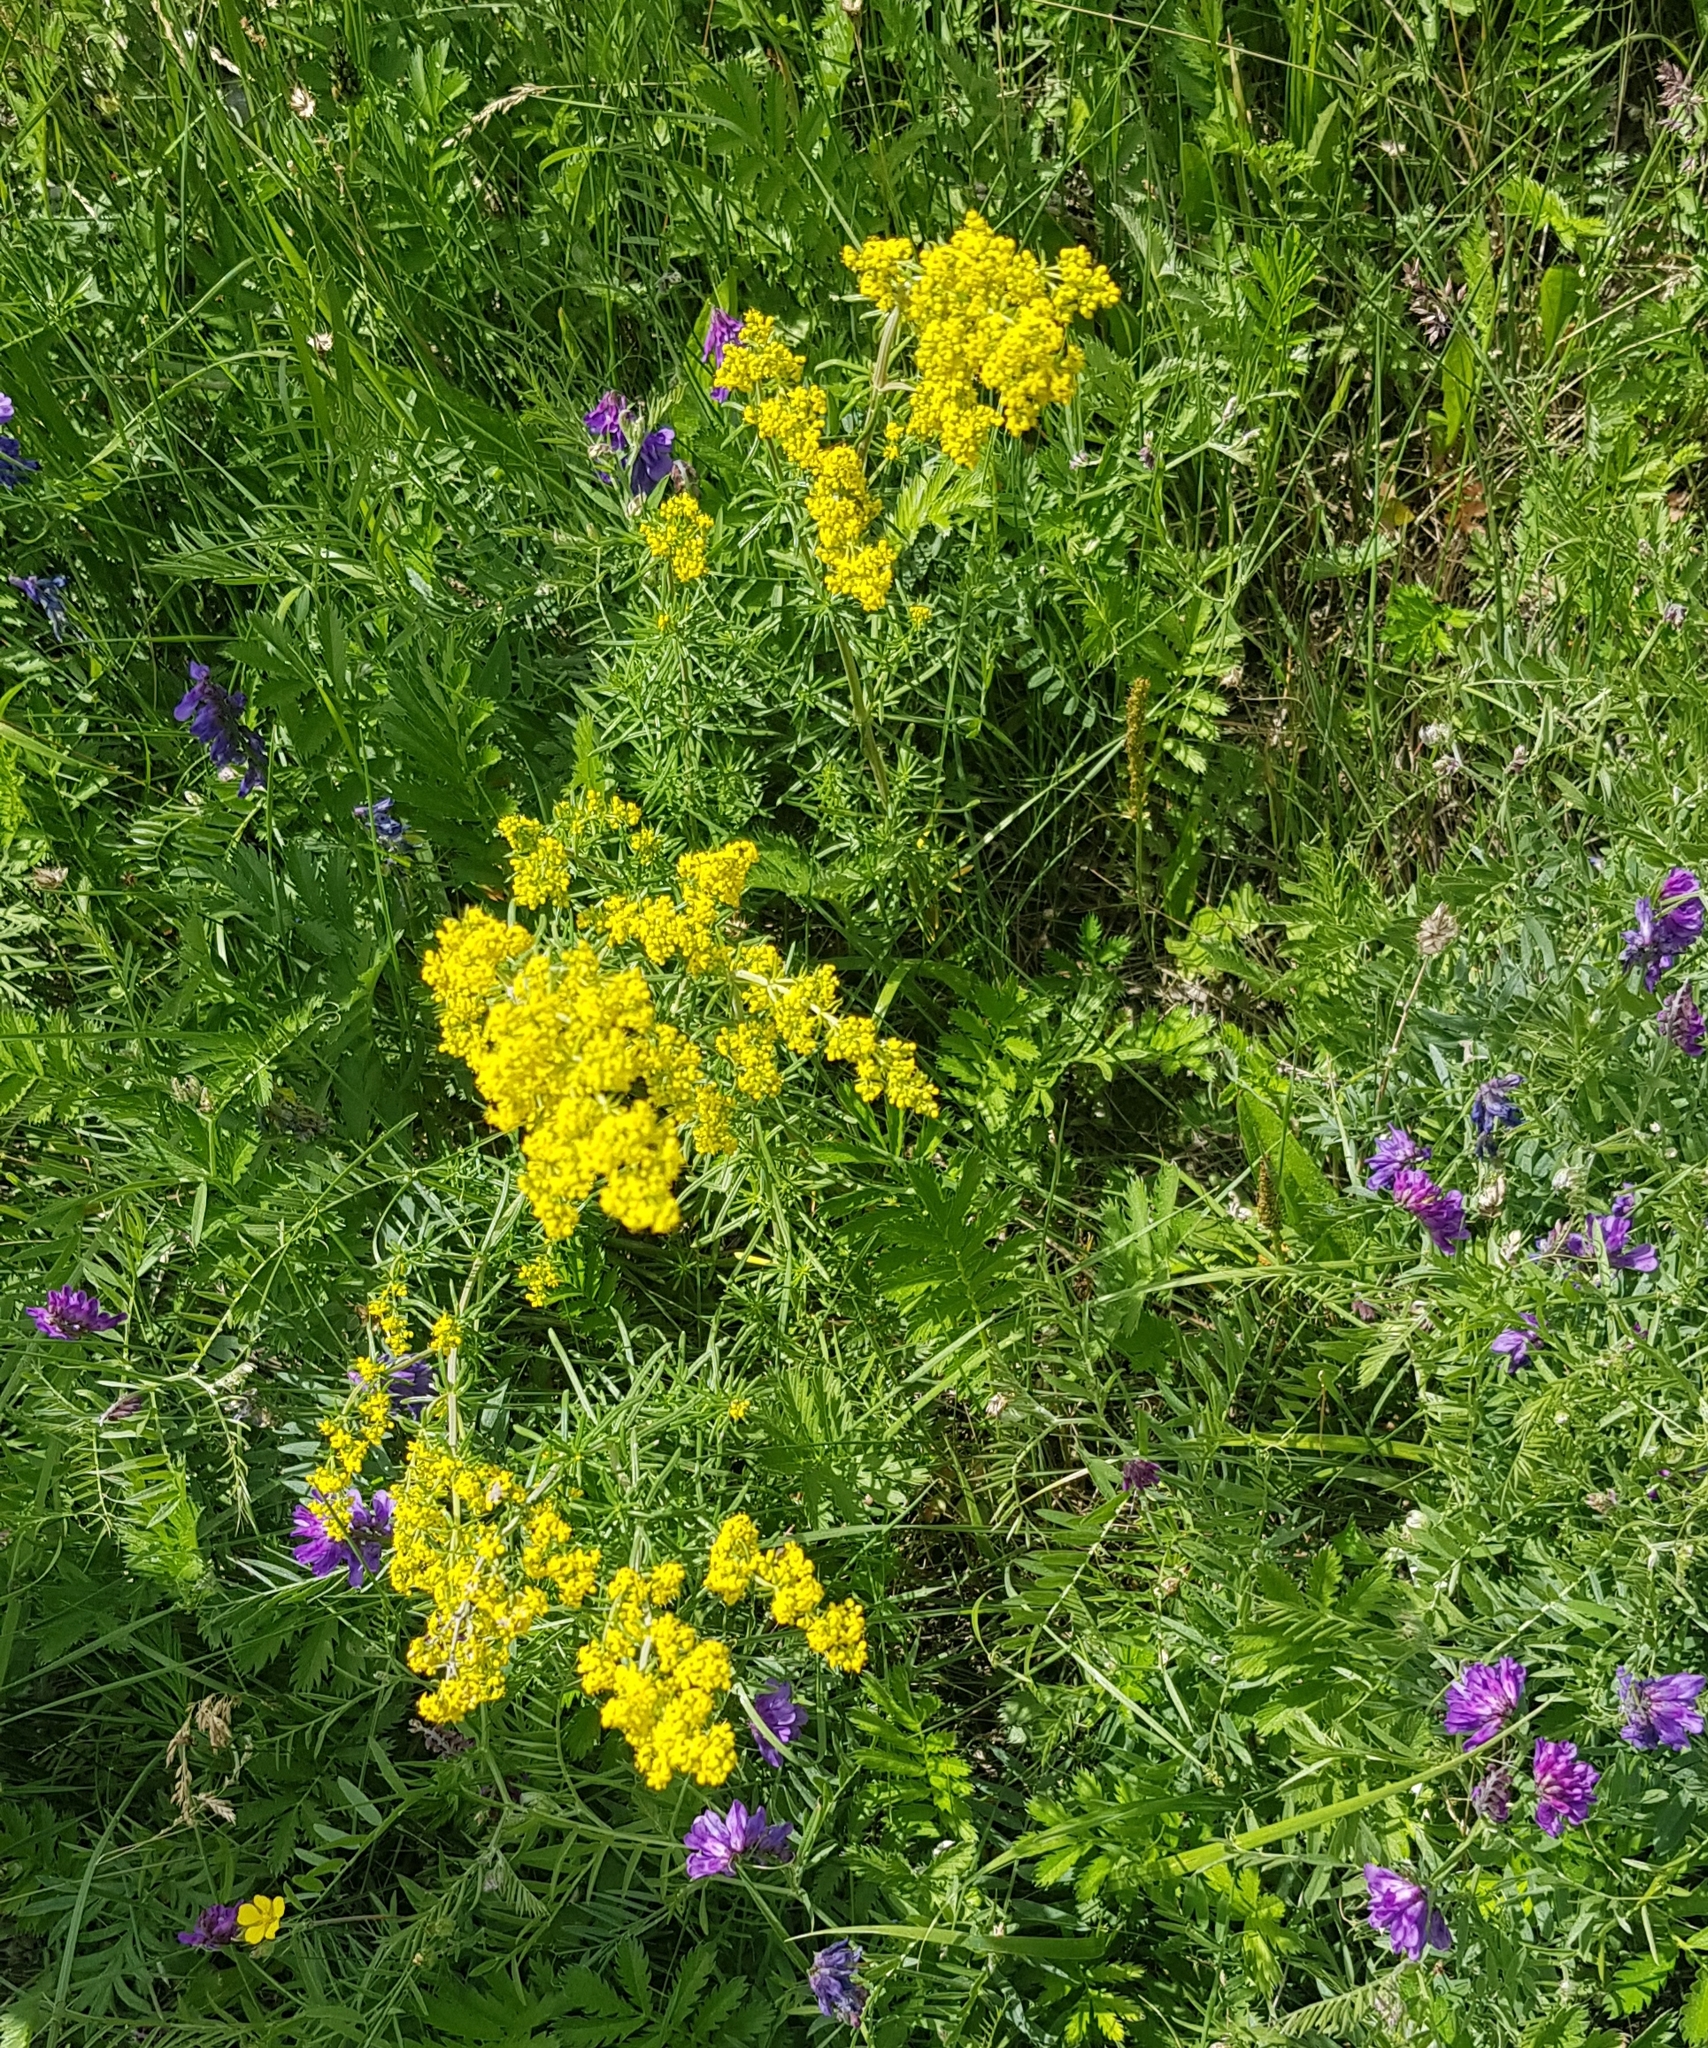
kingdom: Plantae
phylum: Tracheophyta
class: Magnoliopsida
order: Gentianales
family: Rubiaceae
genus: Galium
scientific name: Galium verum
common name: Lady's bedstraw
